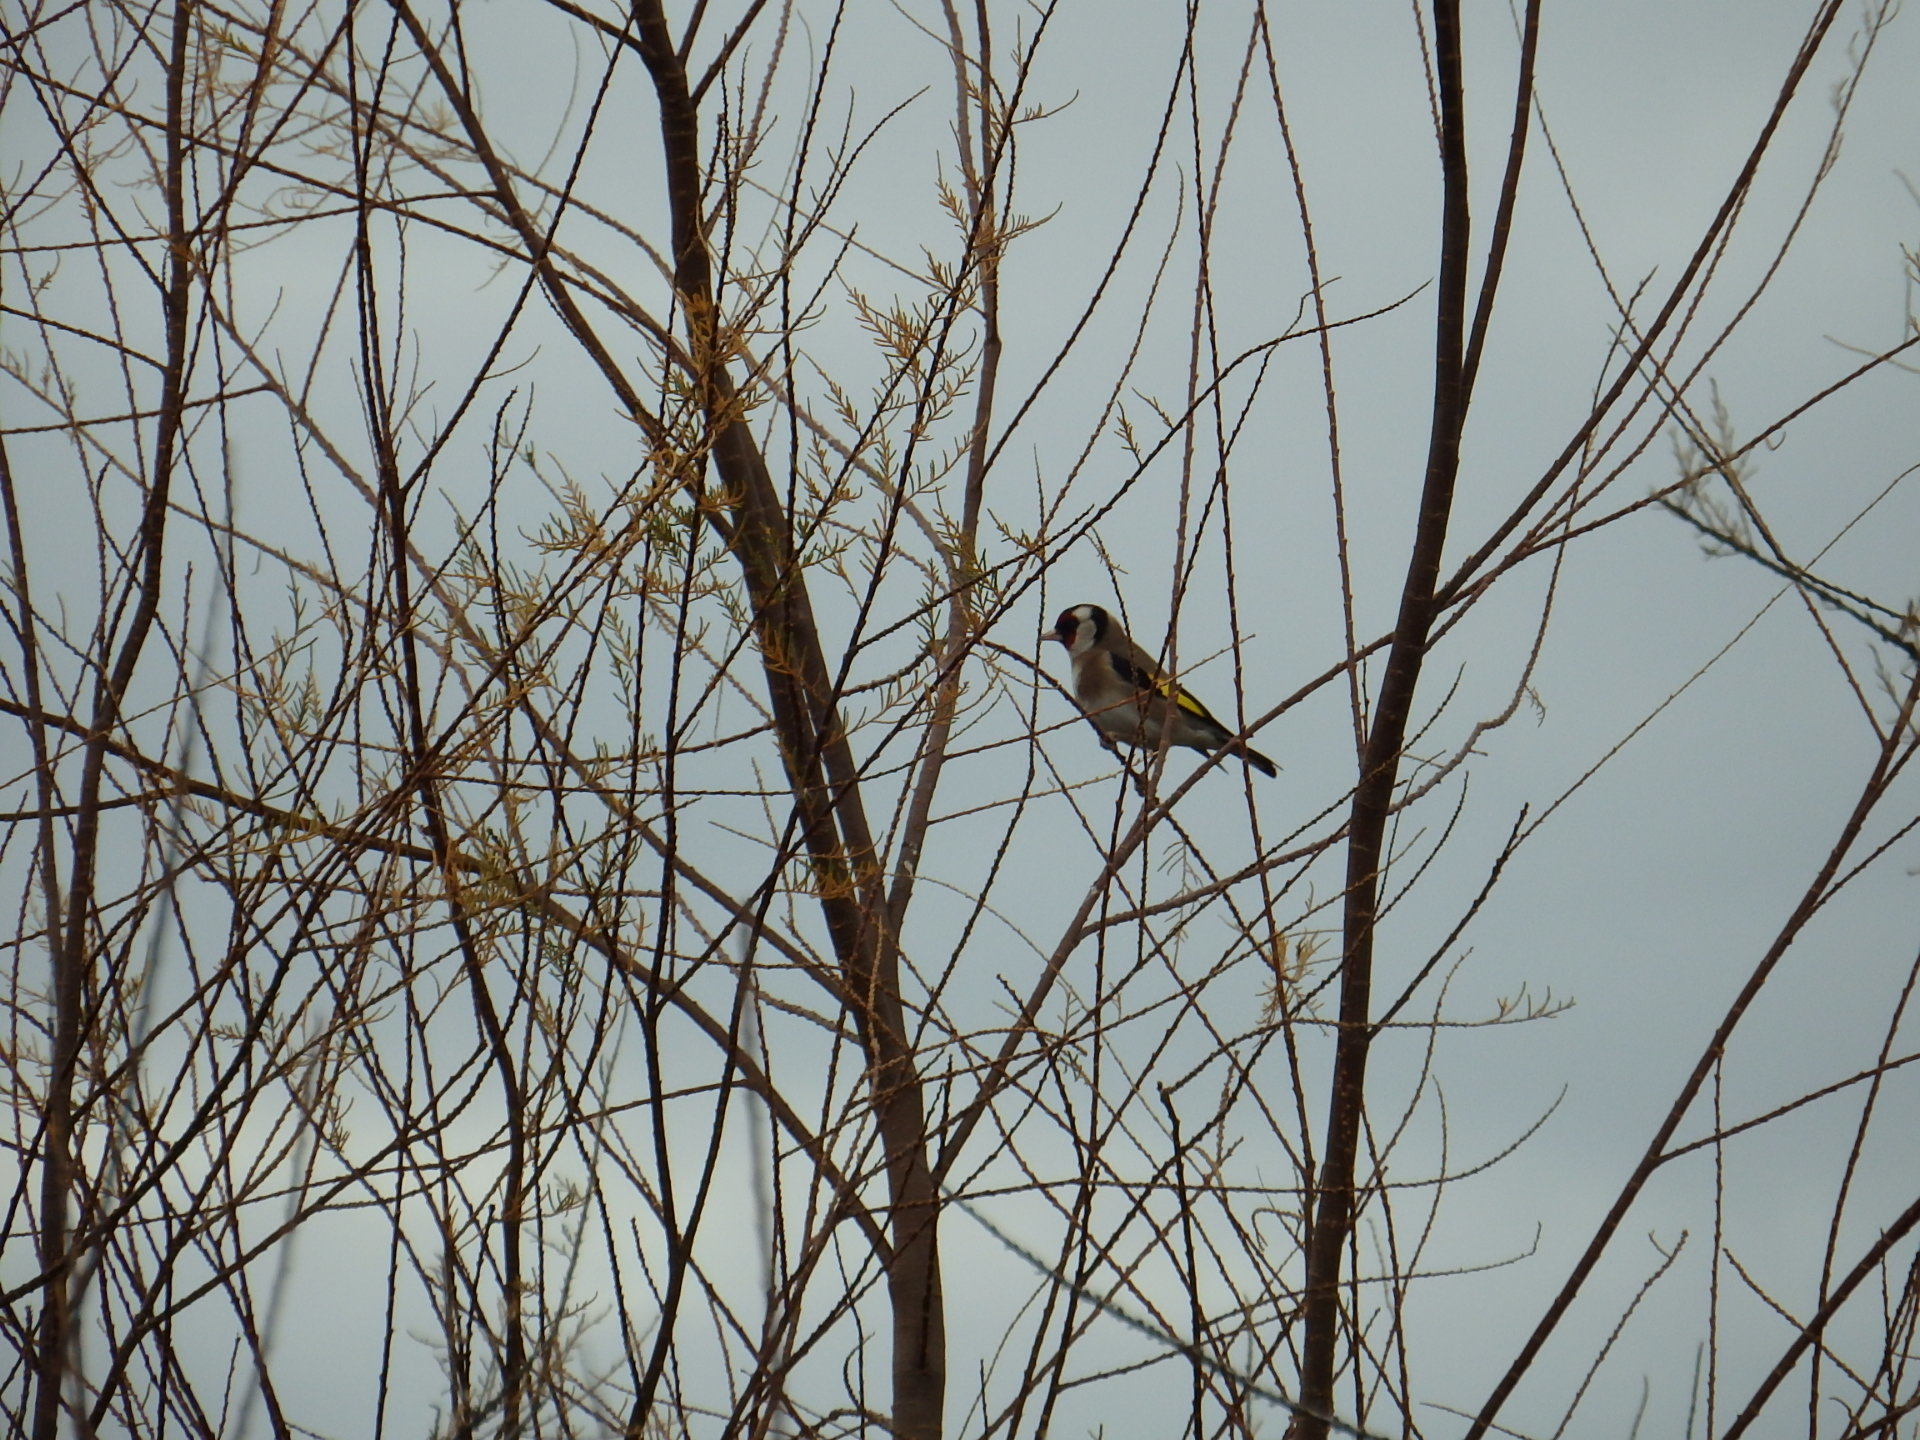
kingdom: Animalia
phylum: Chordata
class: Aves
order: Passeriformes
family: Fringillidae
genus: Carduelis
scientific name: Carduelis carduelis
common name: European goldfinch
